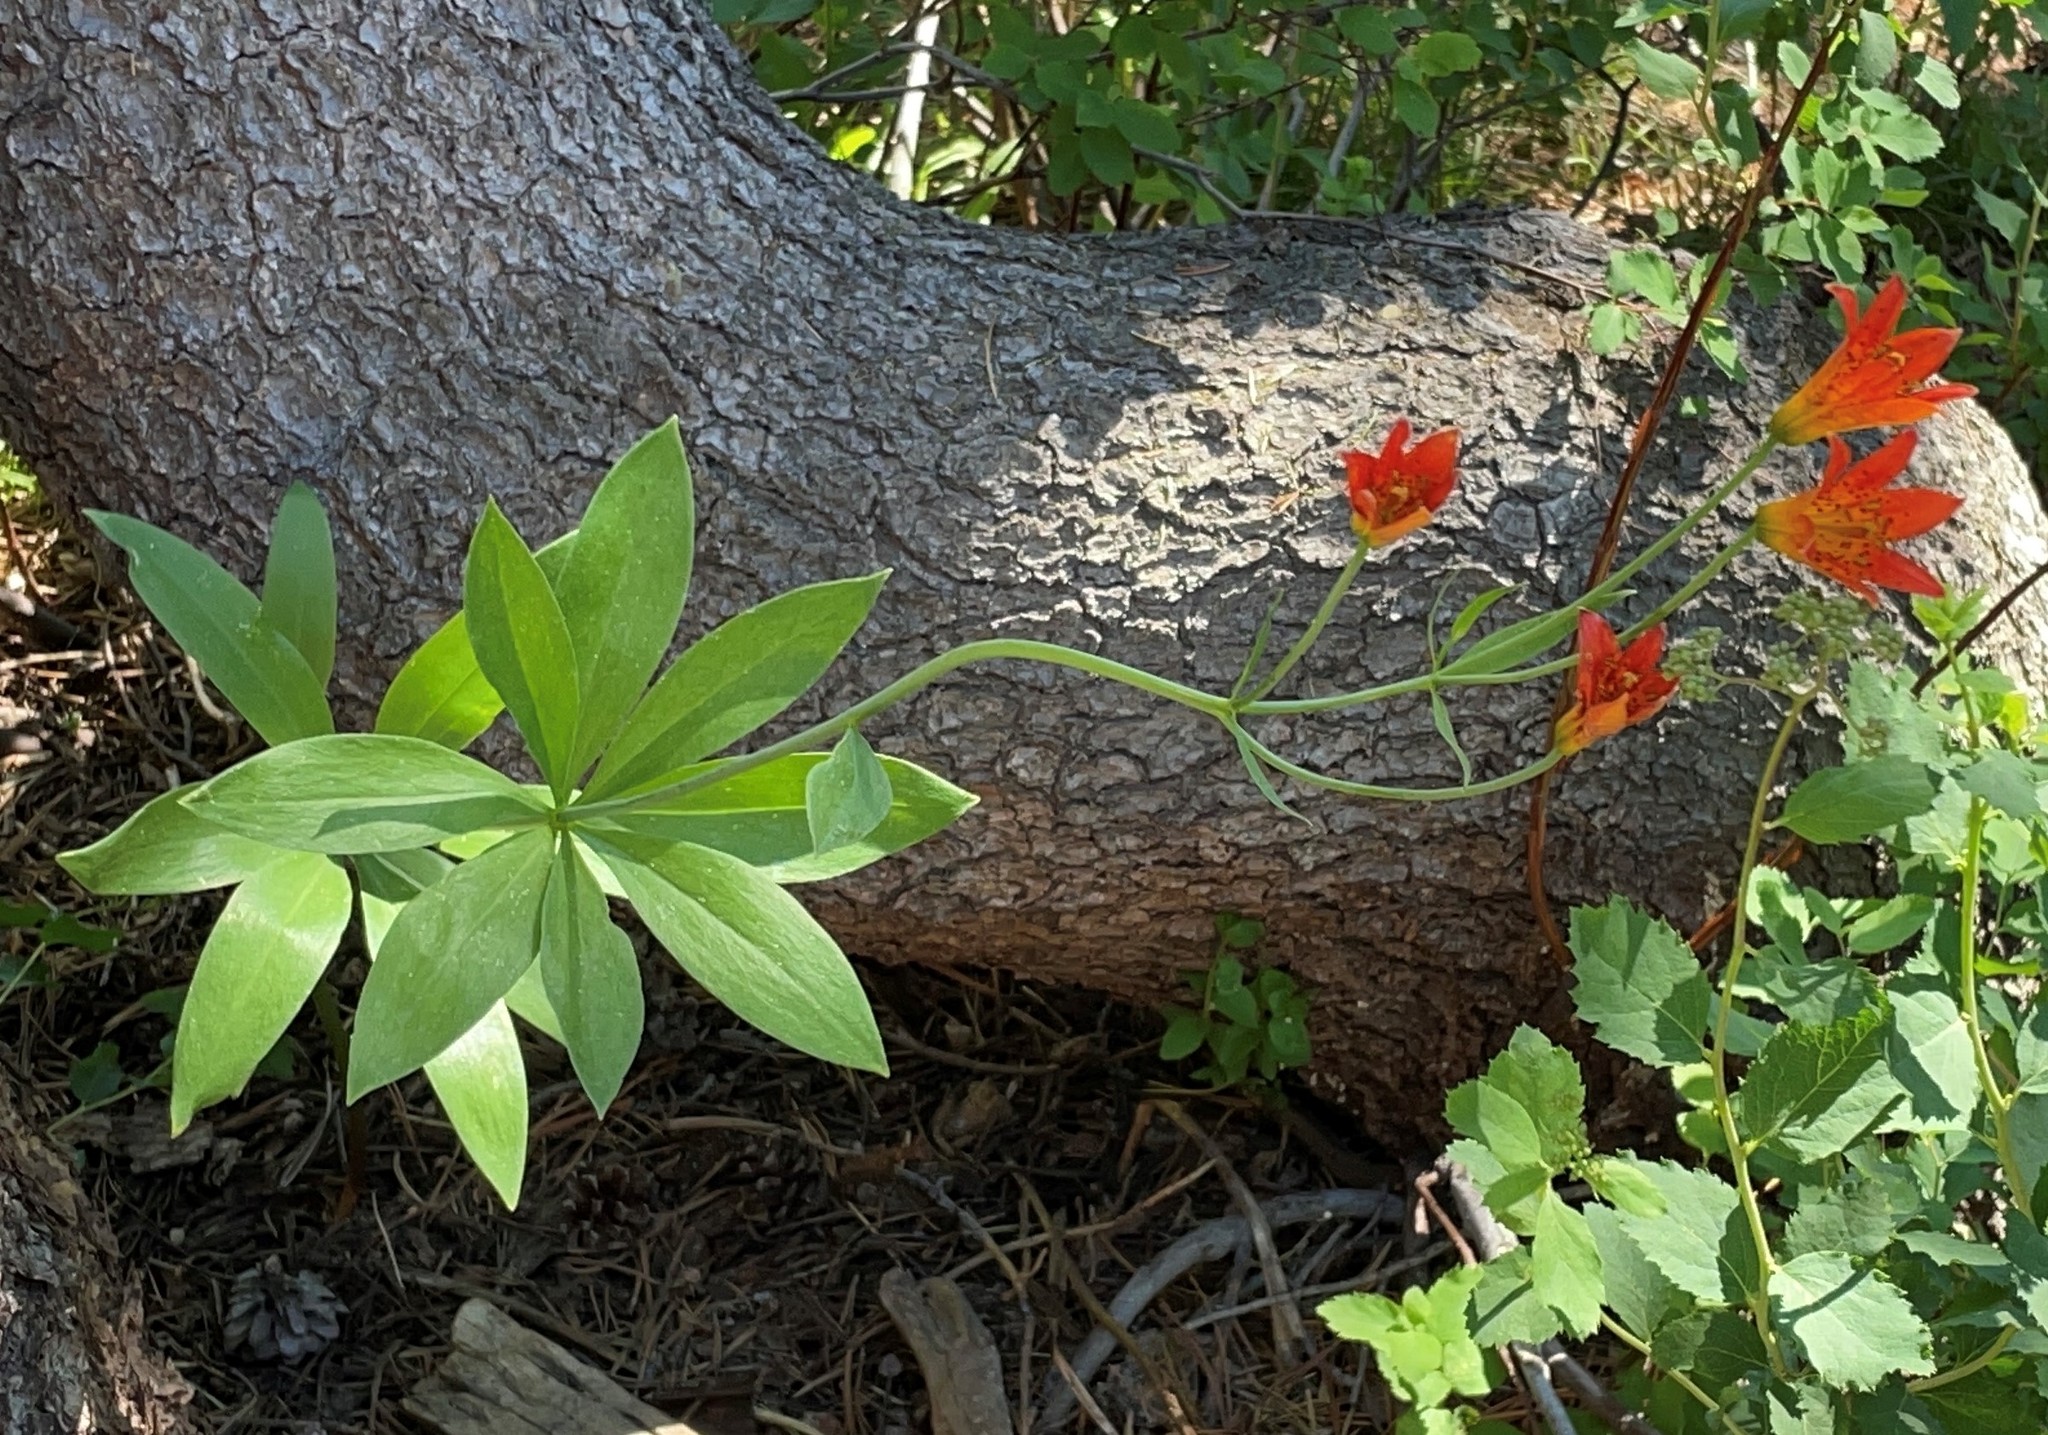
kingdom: Plantae
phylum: Tracheophyta
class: Liliopsida
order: Liliales
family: Liliaceae
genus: Lilium
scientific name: Lilium parvum
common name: Alpine lily
